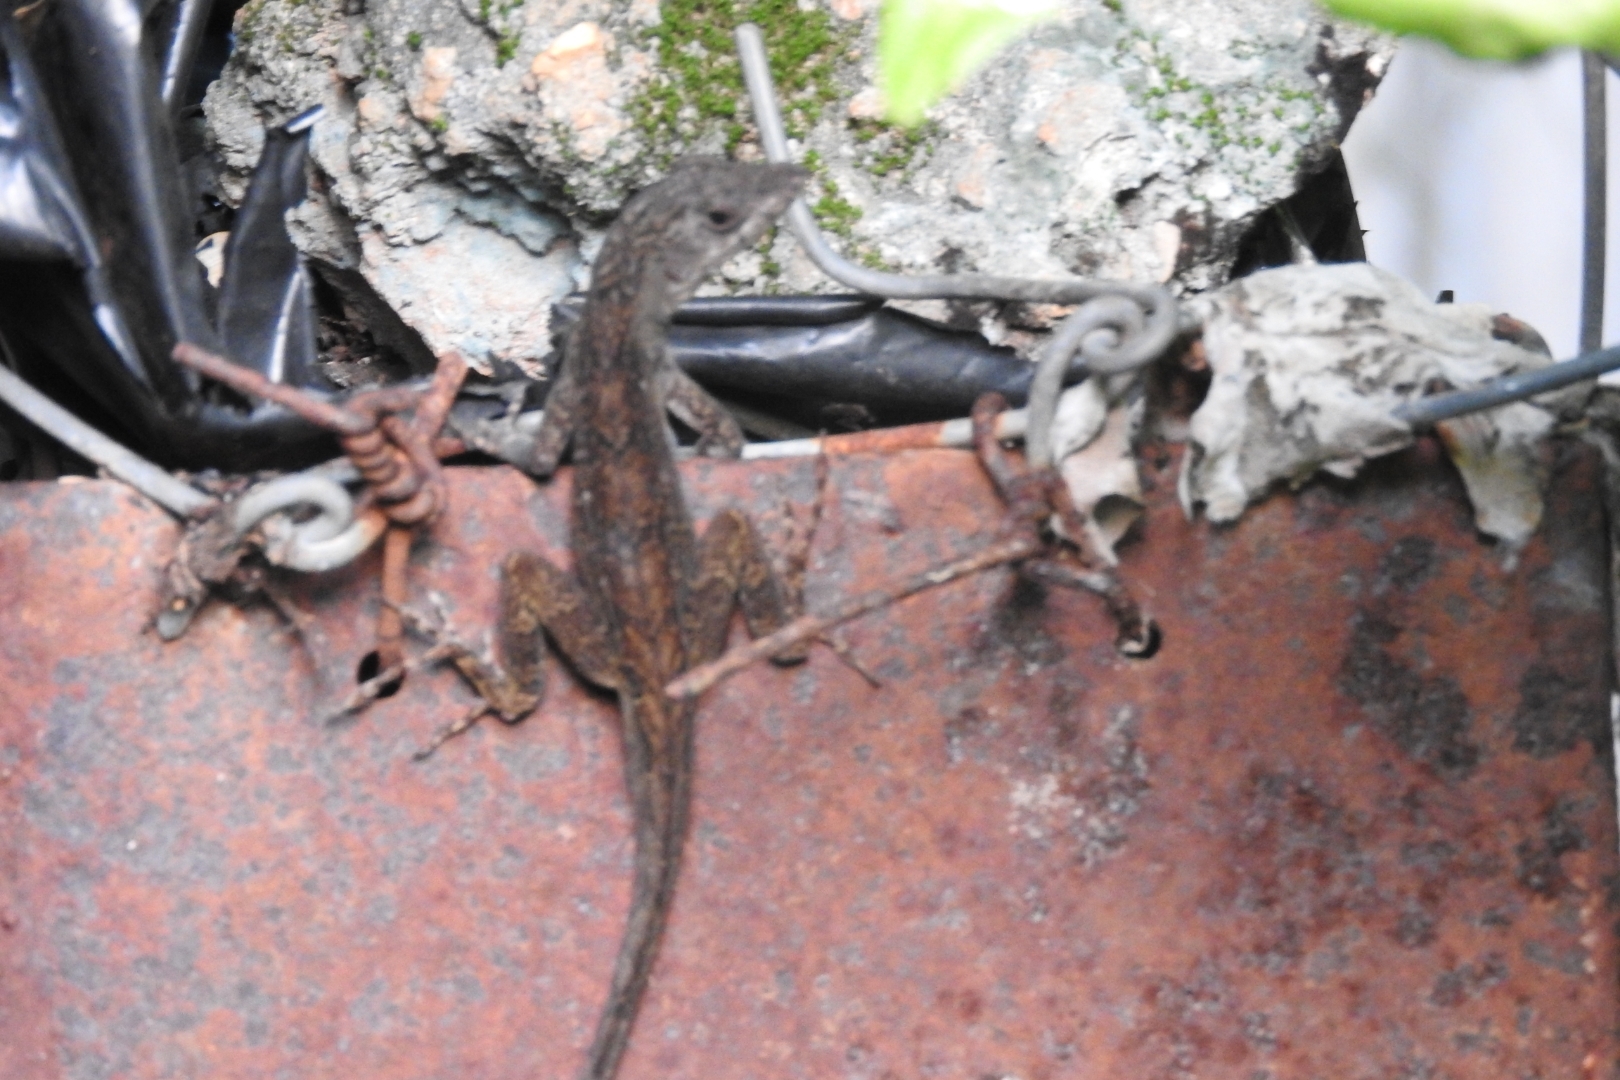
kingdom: Animalia
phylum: Chordata
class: Squamata
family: Dactyloidae
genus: Anolis
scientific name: Anolis sagrei
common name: Brown anole
